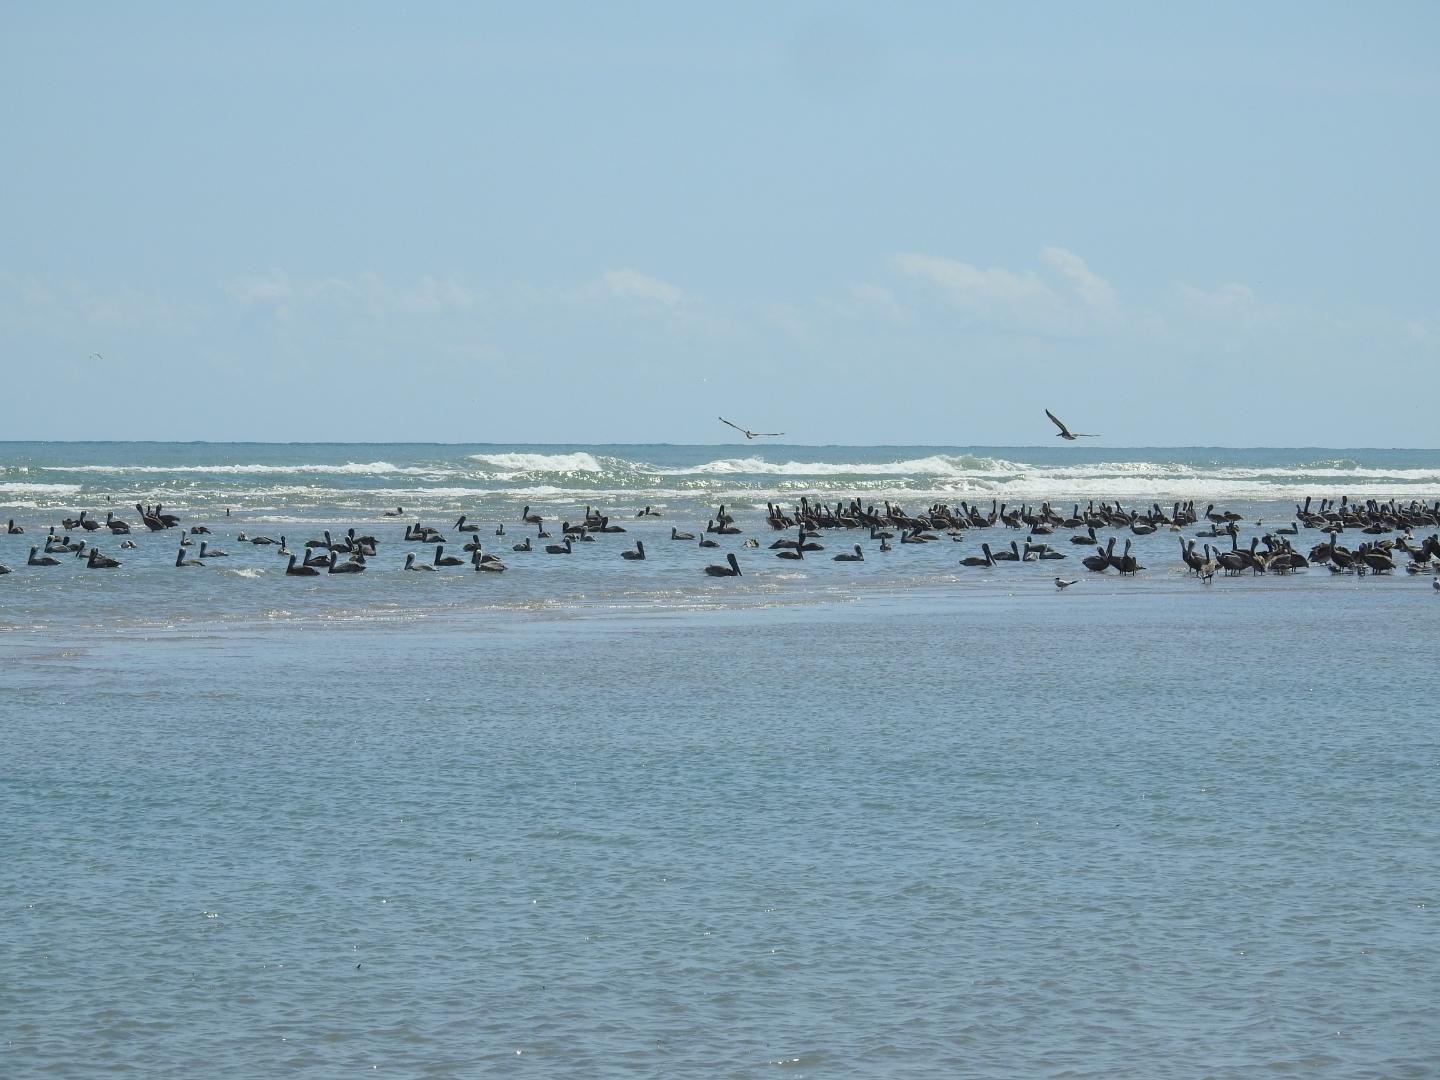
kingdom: Animalia
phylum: Chordata
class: Aves
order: Pelecaniformes
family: Pelecanidae
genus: Pelecanus
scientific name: Pelecanus occidentalis
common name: Brown pelican
